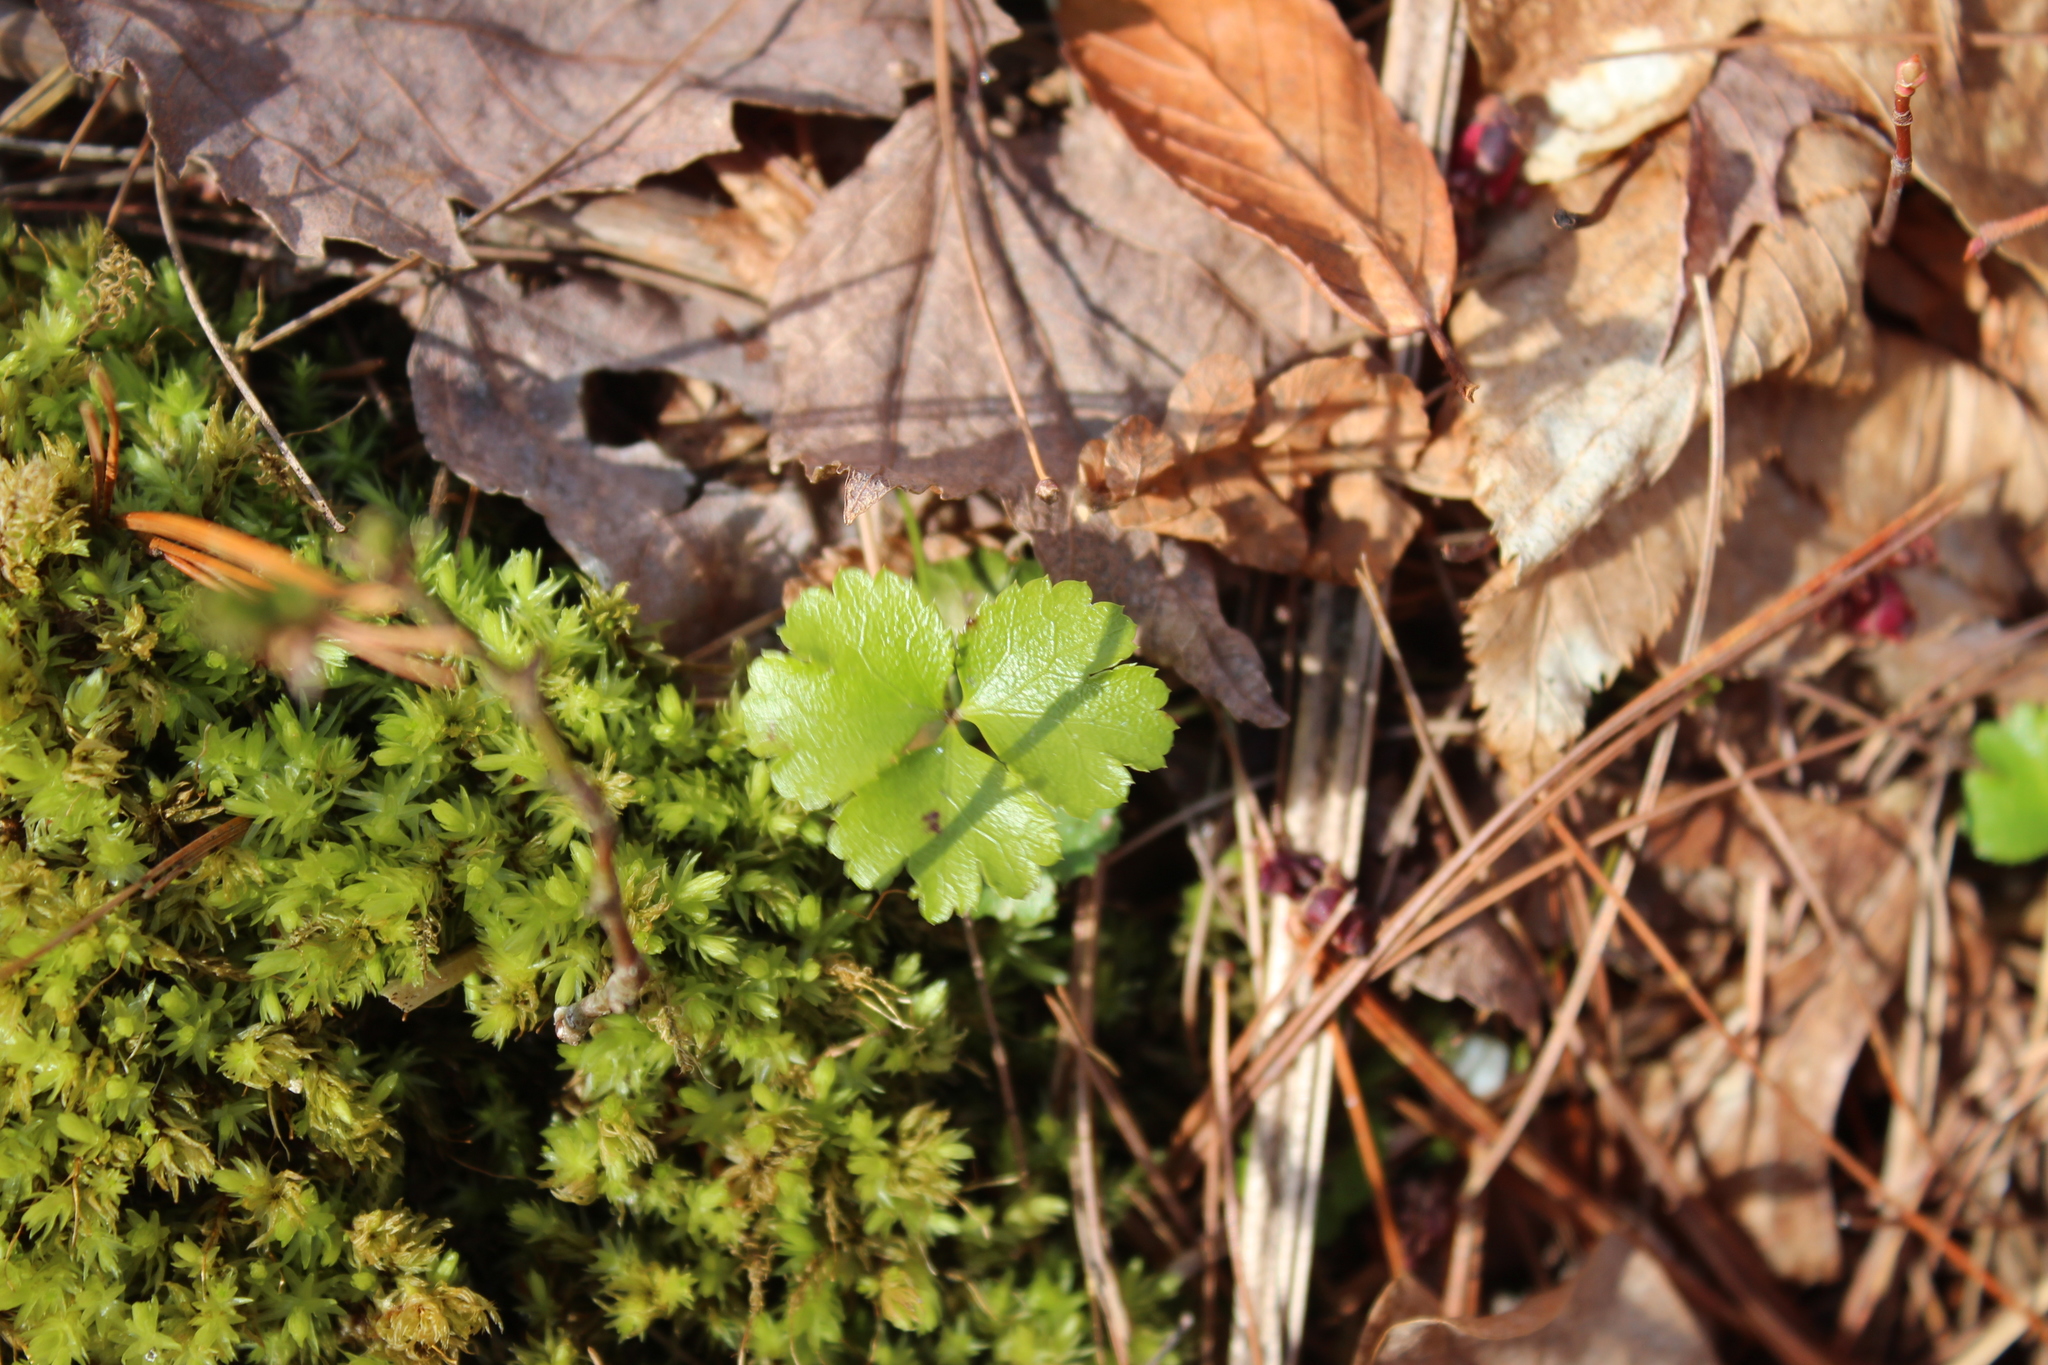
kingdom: Plantae
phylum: Tracheophyta
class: Magnoliopsida
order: Ranunculales
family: Ranunculaceae
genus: Coptis
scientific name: Coptis trifolia
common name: Canker-root
